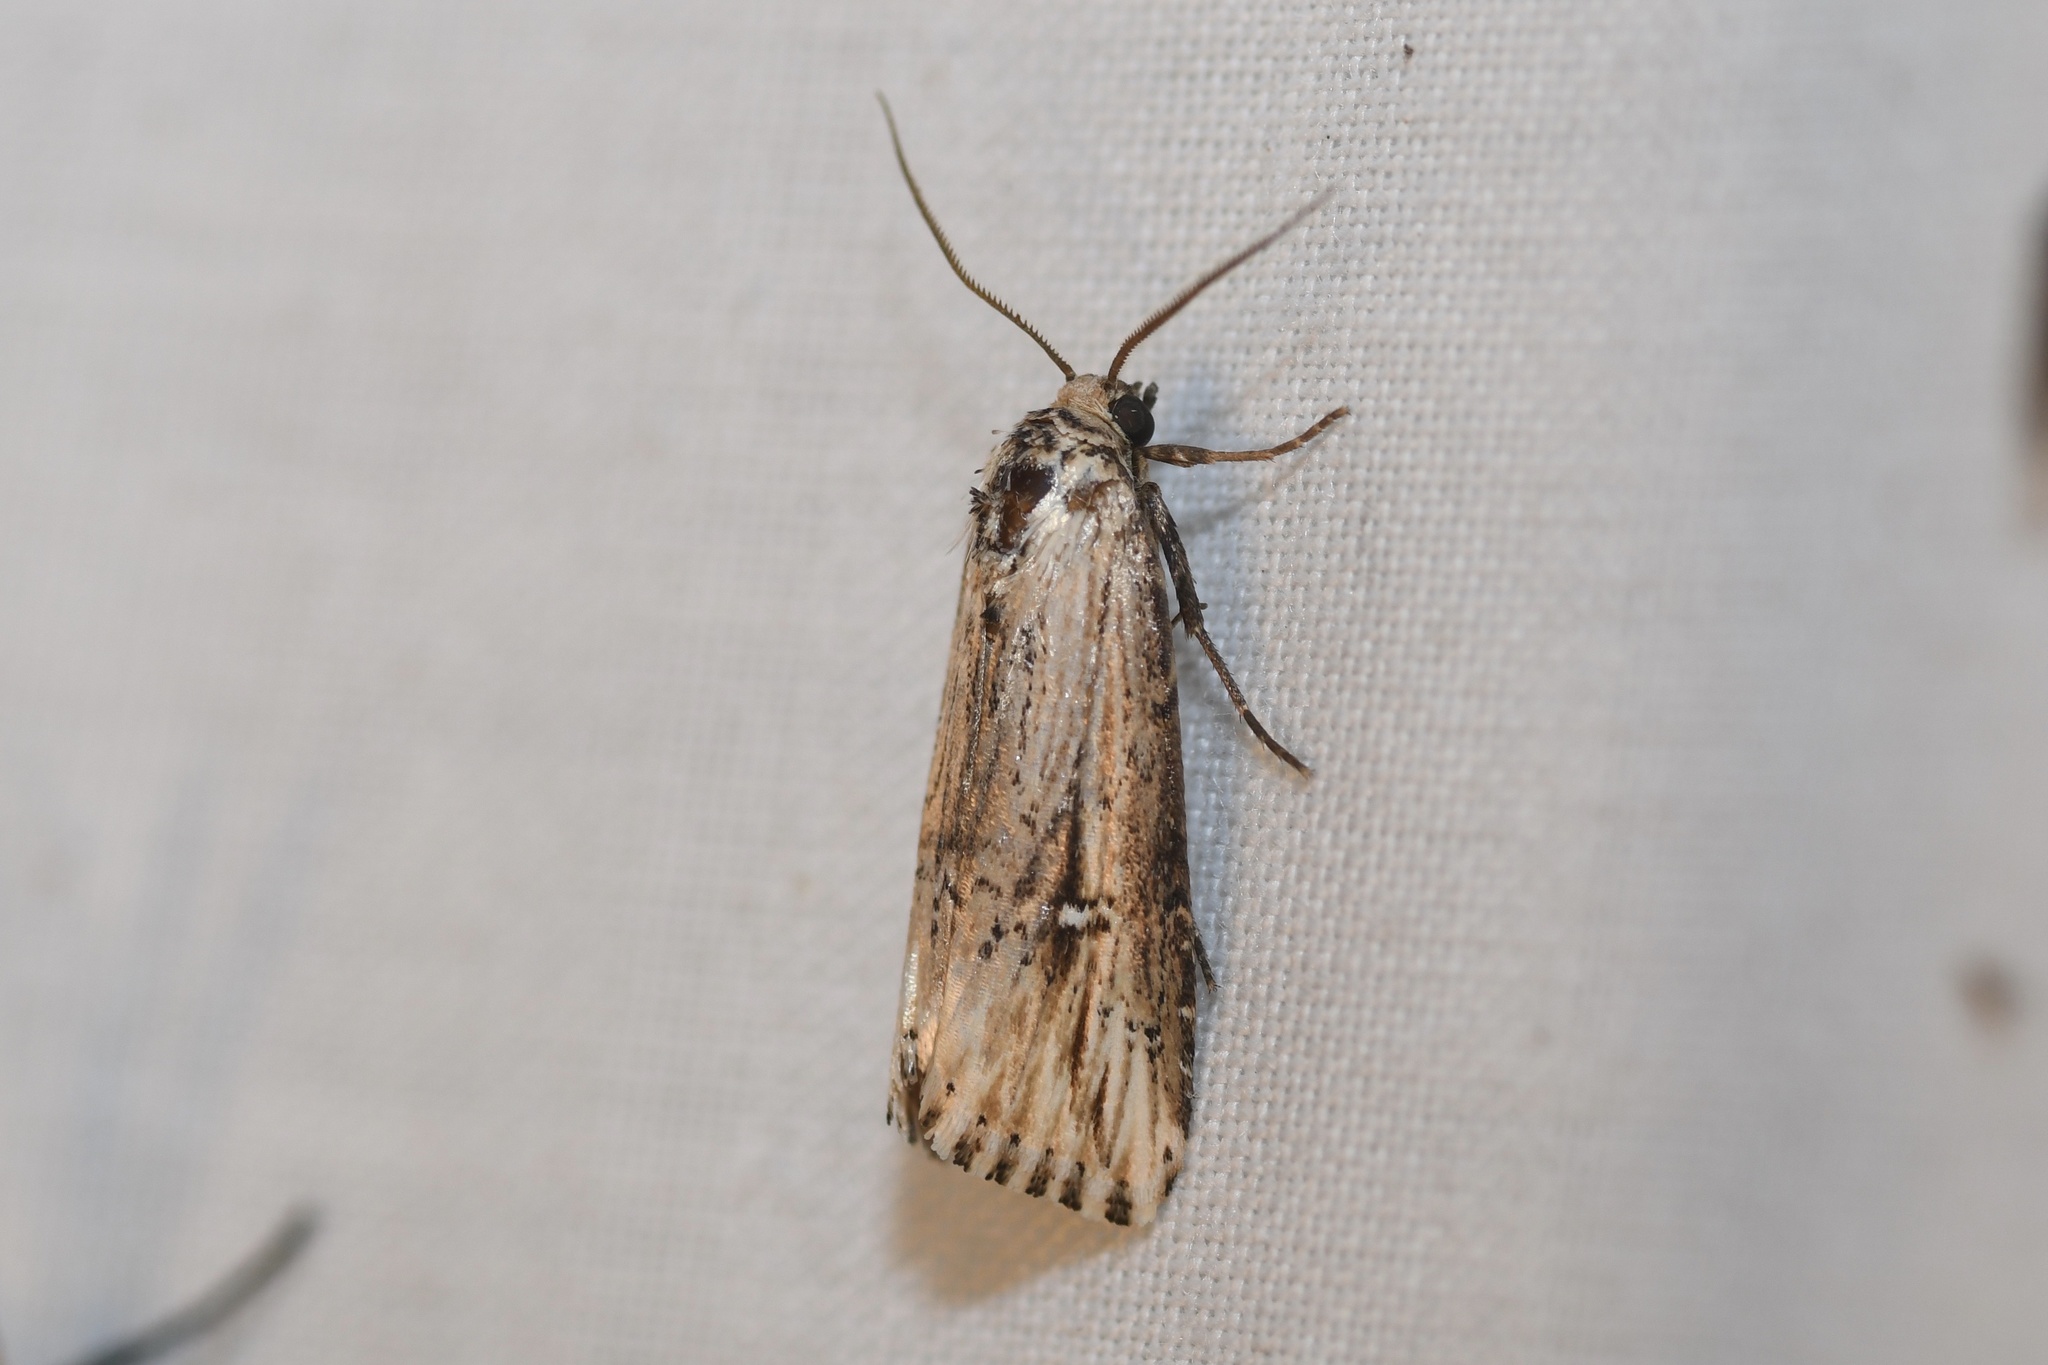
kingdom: Animalia
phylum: Arthropoda
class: Insecta
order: Lepidoptera
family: Noctuidae
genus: Crambodes
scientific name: Crambodes talidiformis
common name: Verbena moth
